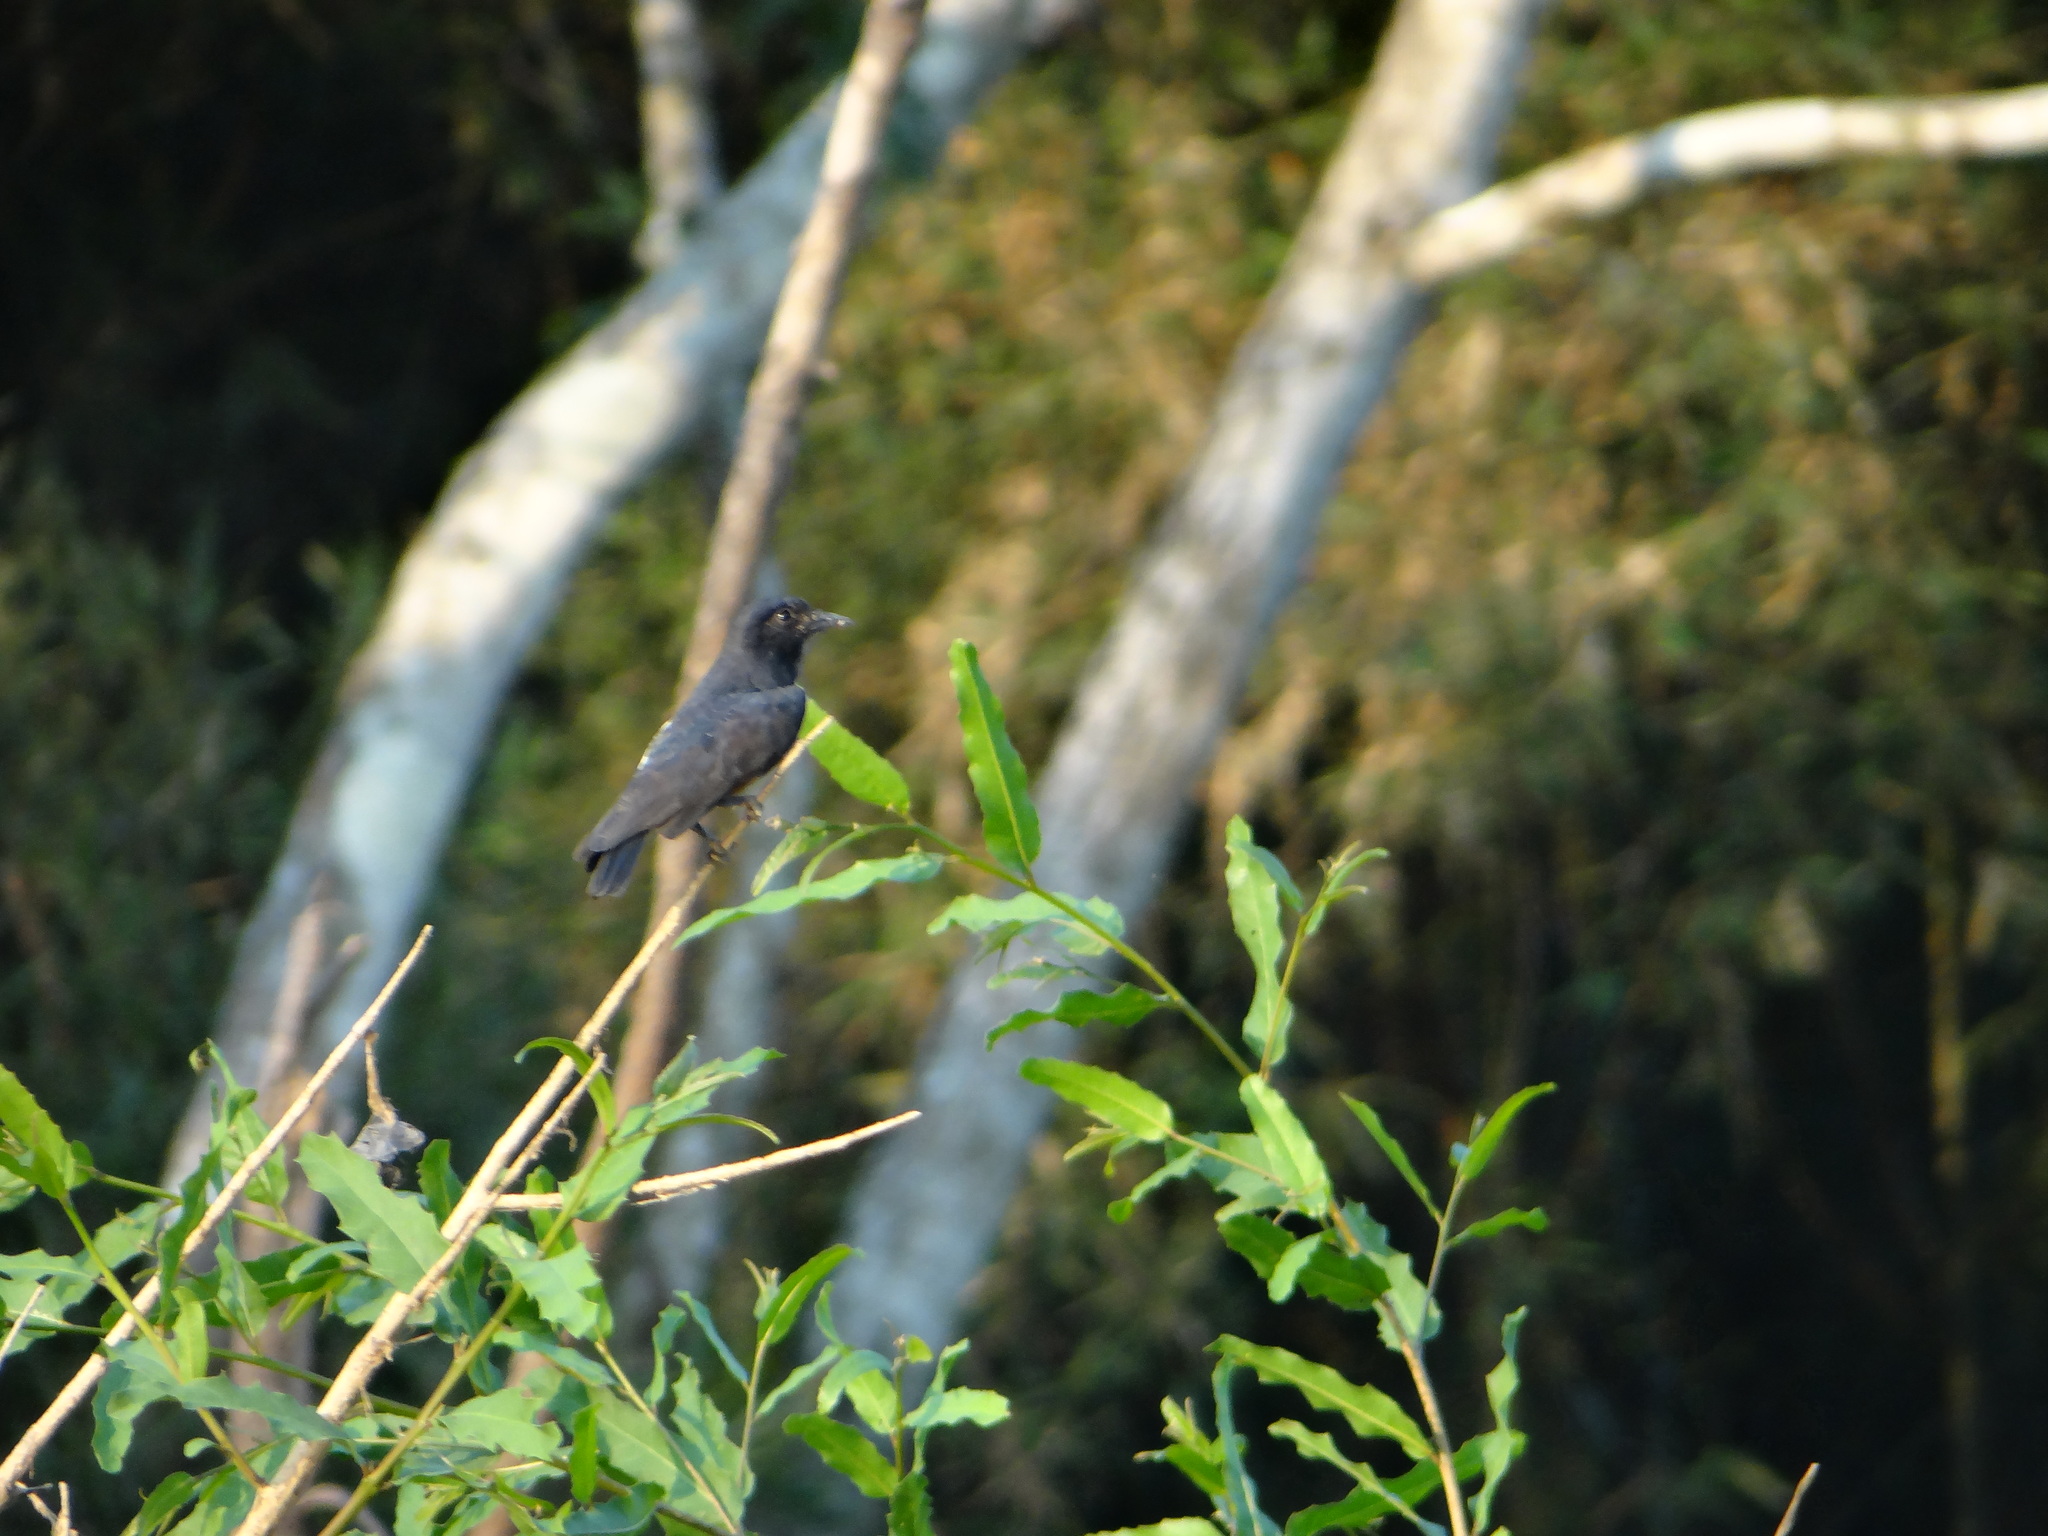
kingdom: Animalia
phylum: Chordata
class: Aves
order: Piciformes
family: Bucconidae
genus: Chelidoptera
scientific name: Chelidoptera tenebrosa
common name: Swallow-winged puffbird
